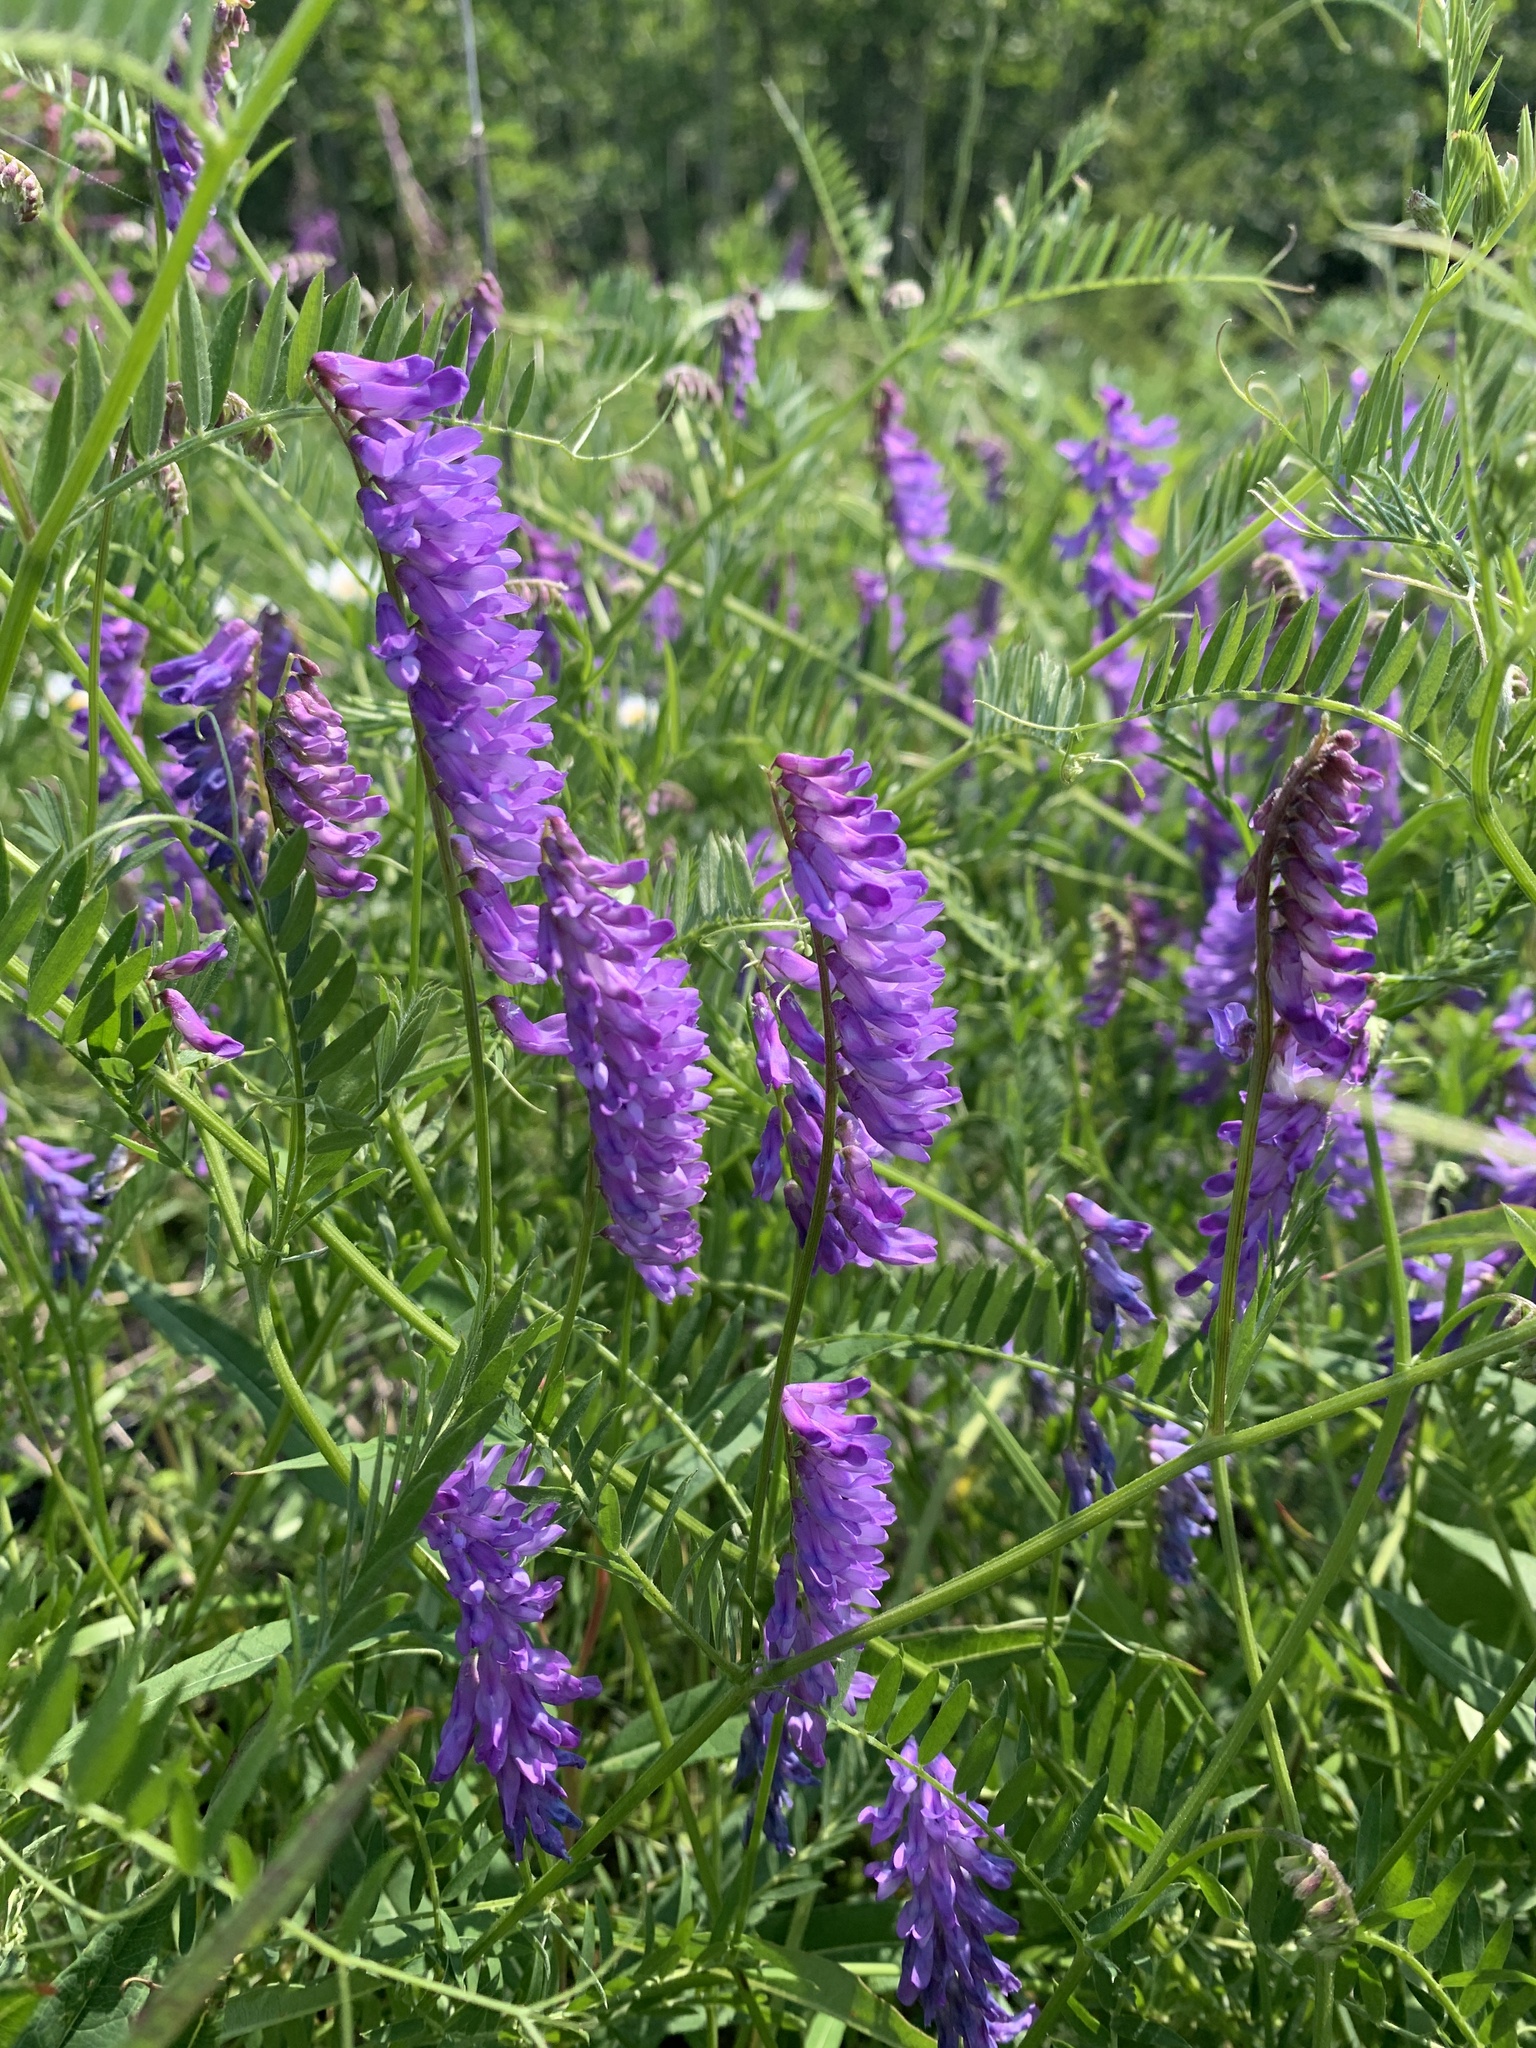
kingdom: Plantae
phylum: Tracheophyta
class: Magnoliopsida
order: Fabales
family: Fabaceae
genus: Vicia
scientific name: Vicia cracca
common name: Bird vetch
